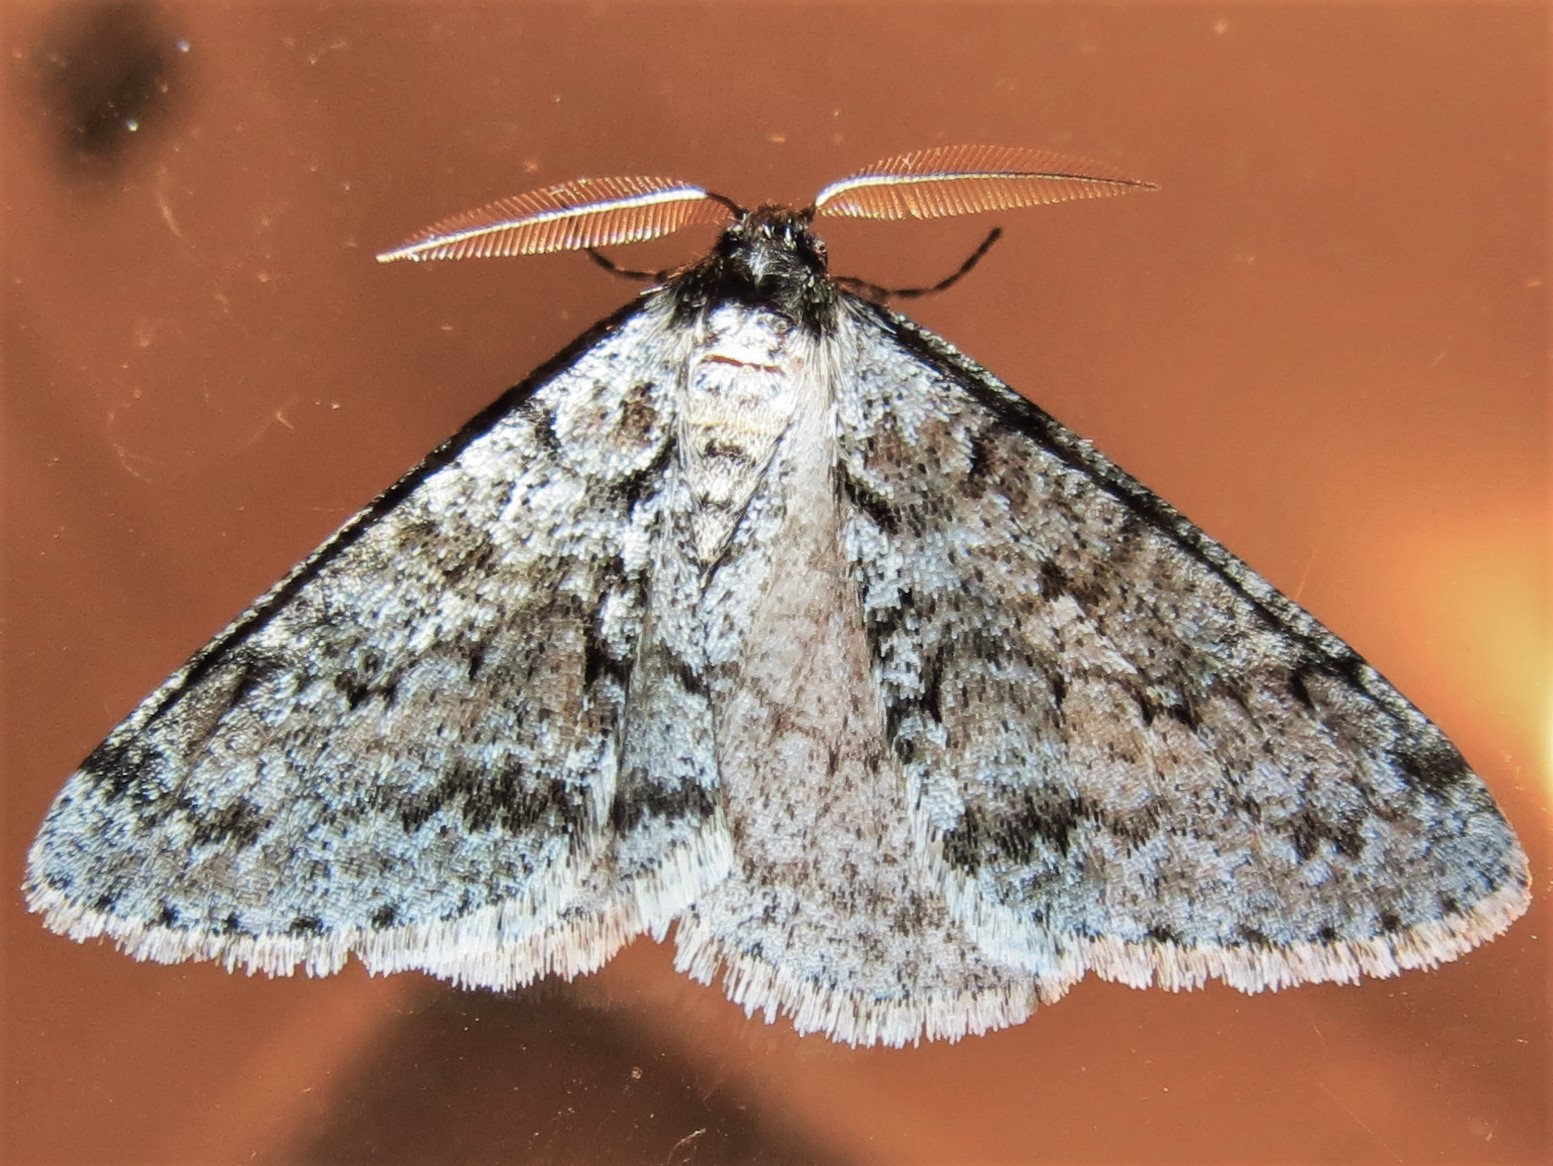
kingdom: Animalia
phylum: Arthropoda
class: Insecta
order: Lepidoptera
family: Geometridae
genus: Phigalia
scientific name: Phigalia denticulata
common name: Toothed phigalia
